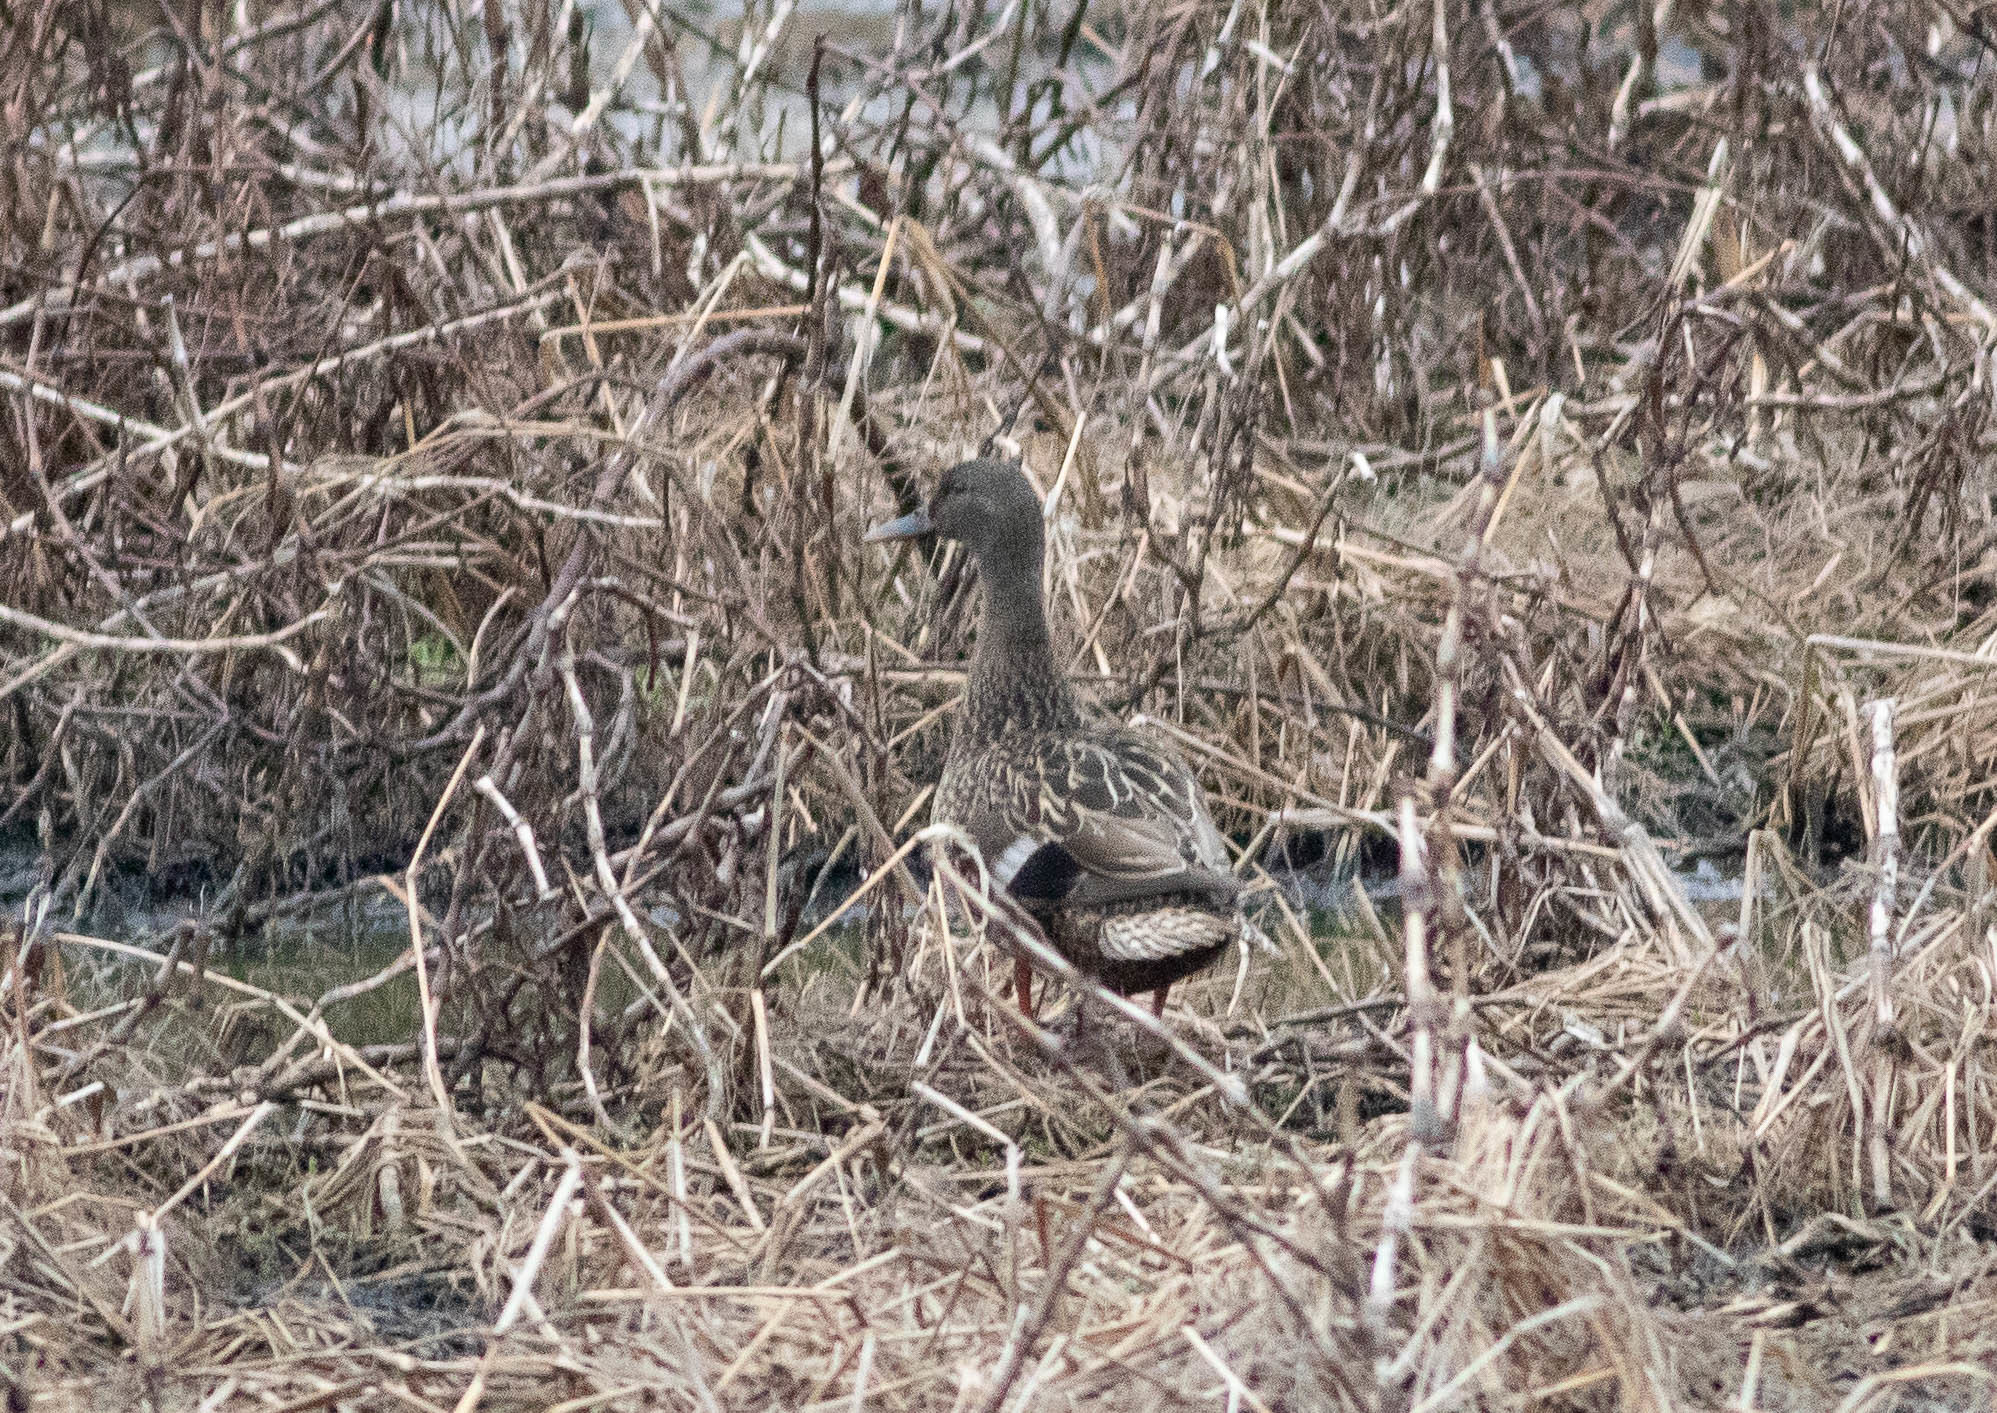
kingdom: Animalia
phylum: Chordata
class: Aves
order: Anseriformes
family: Anatidae
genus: Anas
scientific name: Anas platyrhynchos
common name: Mallard
